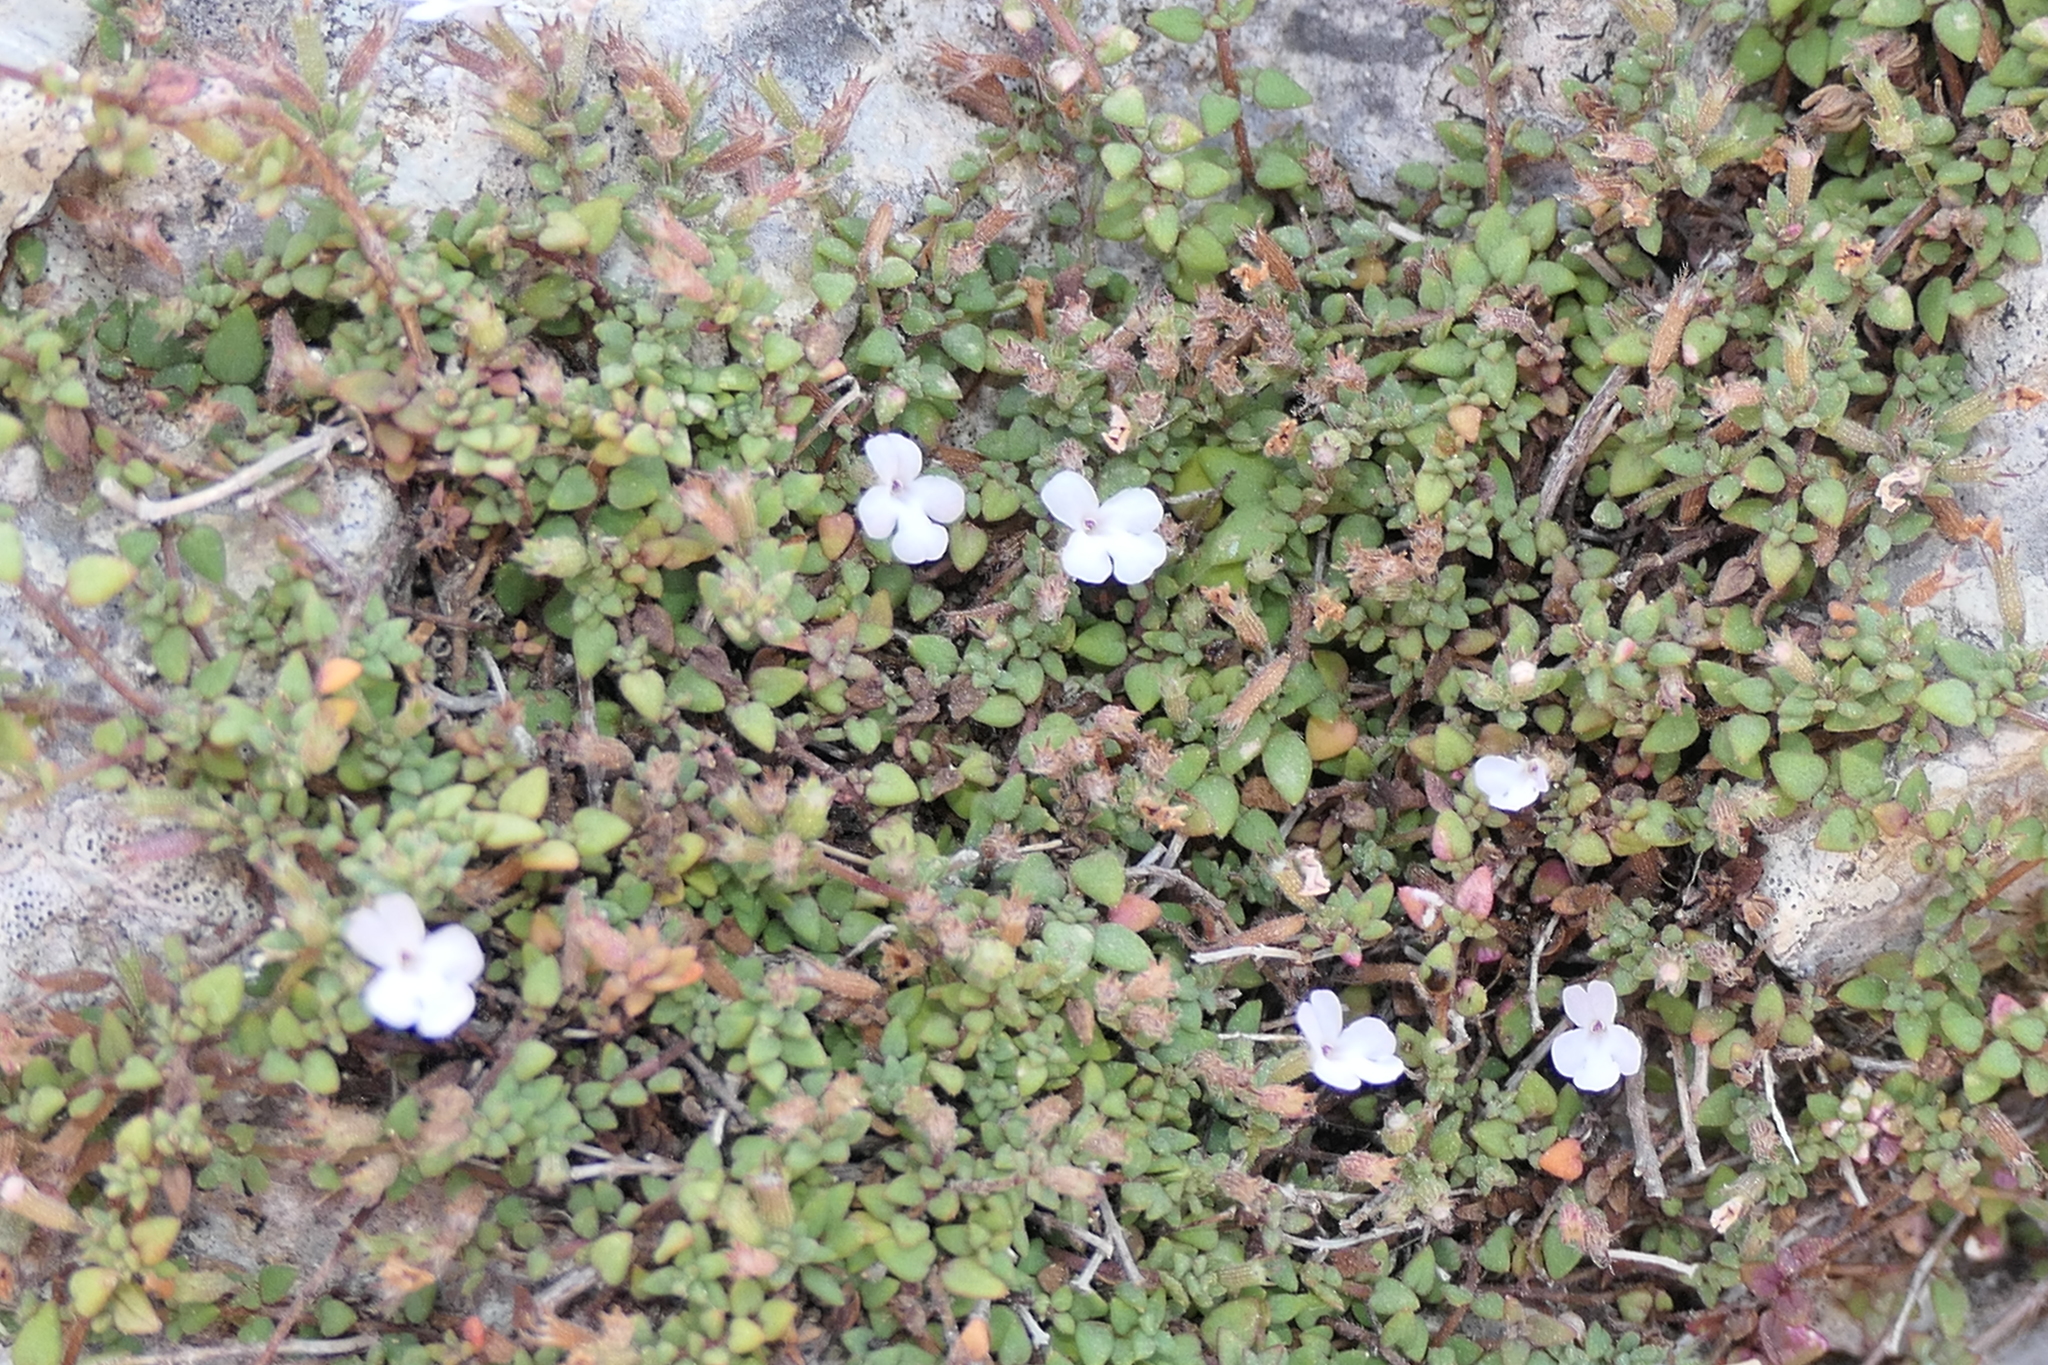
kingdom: Plantae
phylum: Tracheophyta
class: Magnoliopsida
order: Lamiales
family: Lamiaceae
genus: Micromeria
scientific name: Micromeria filiformis
